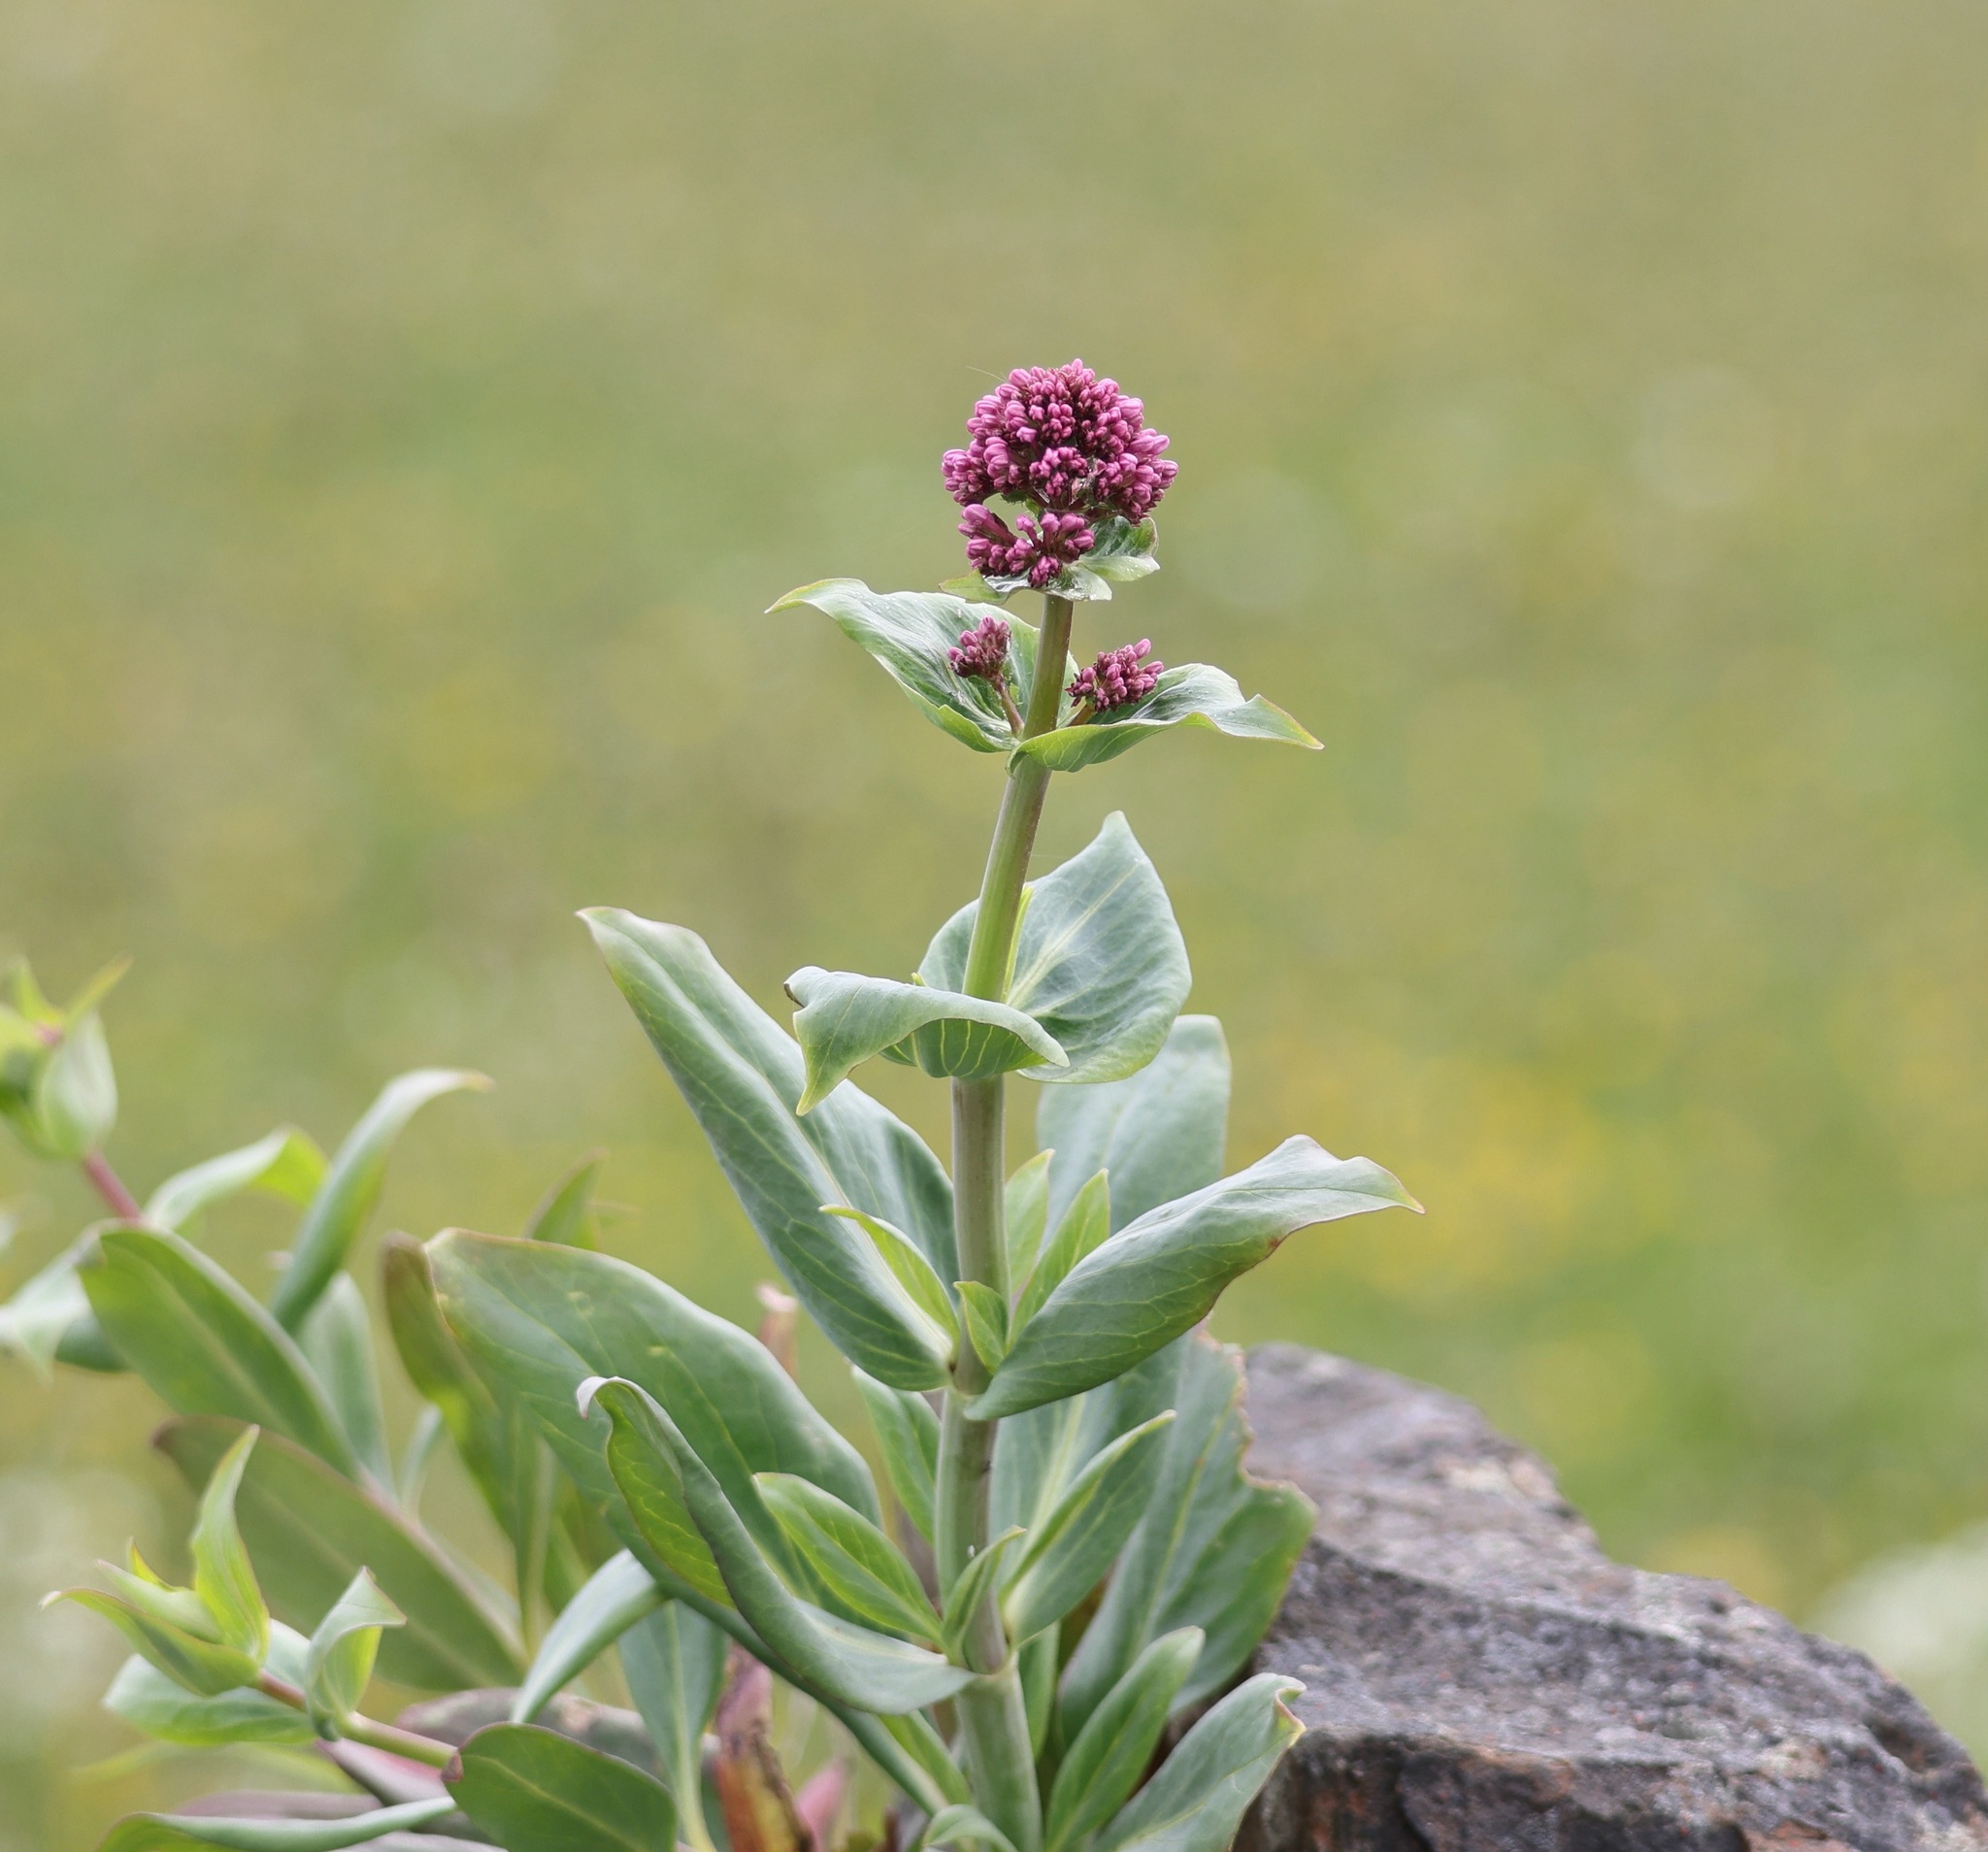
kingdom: Plantae
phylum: Tracheophyta
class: Magnoliopsida
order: Dipsacales
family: Caprifoliaceae
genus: Centranthus
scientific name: Centranthus ruber
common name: Red valerian
